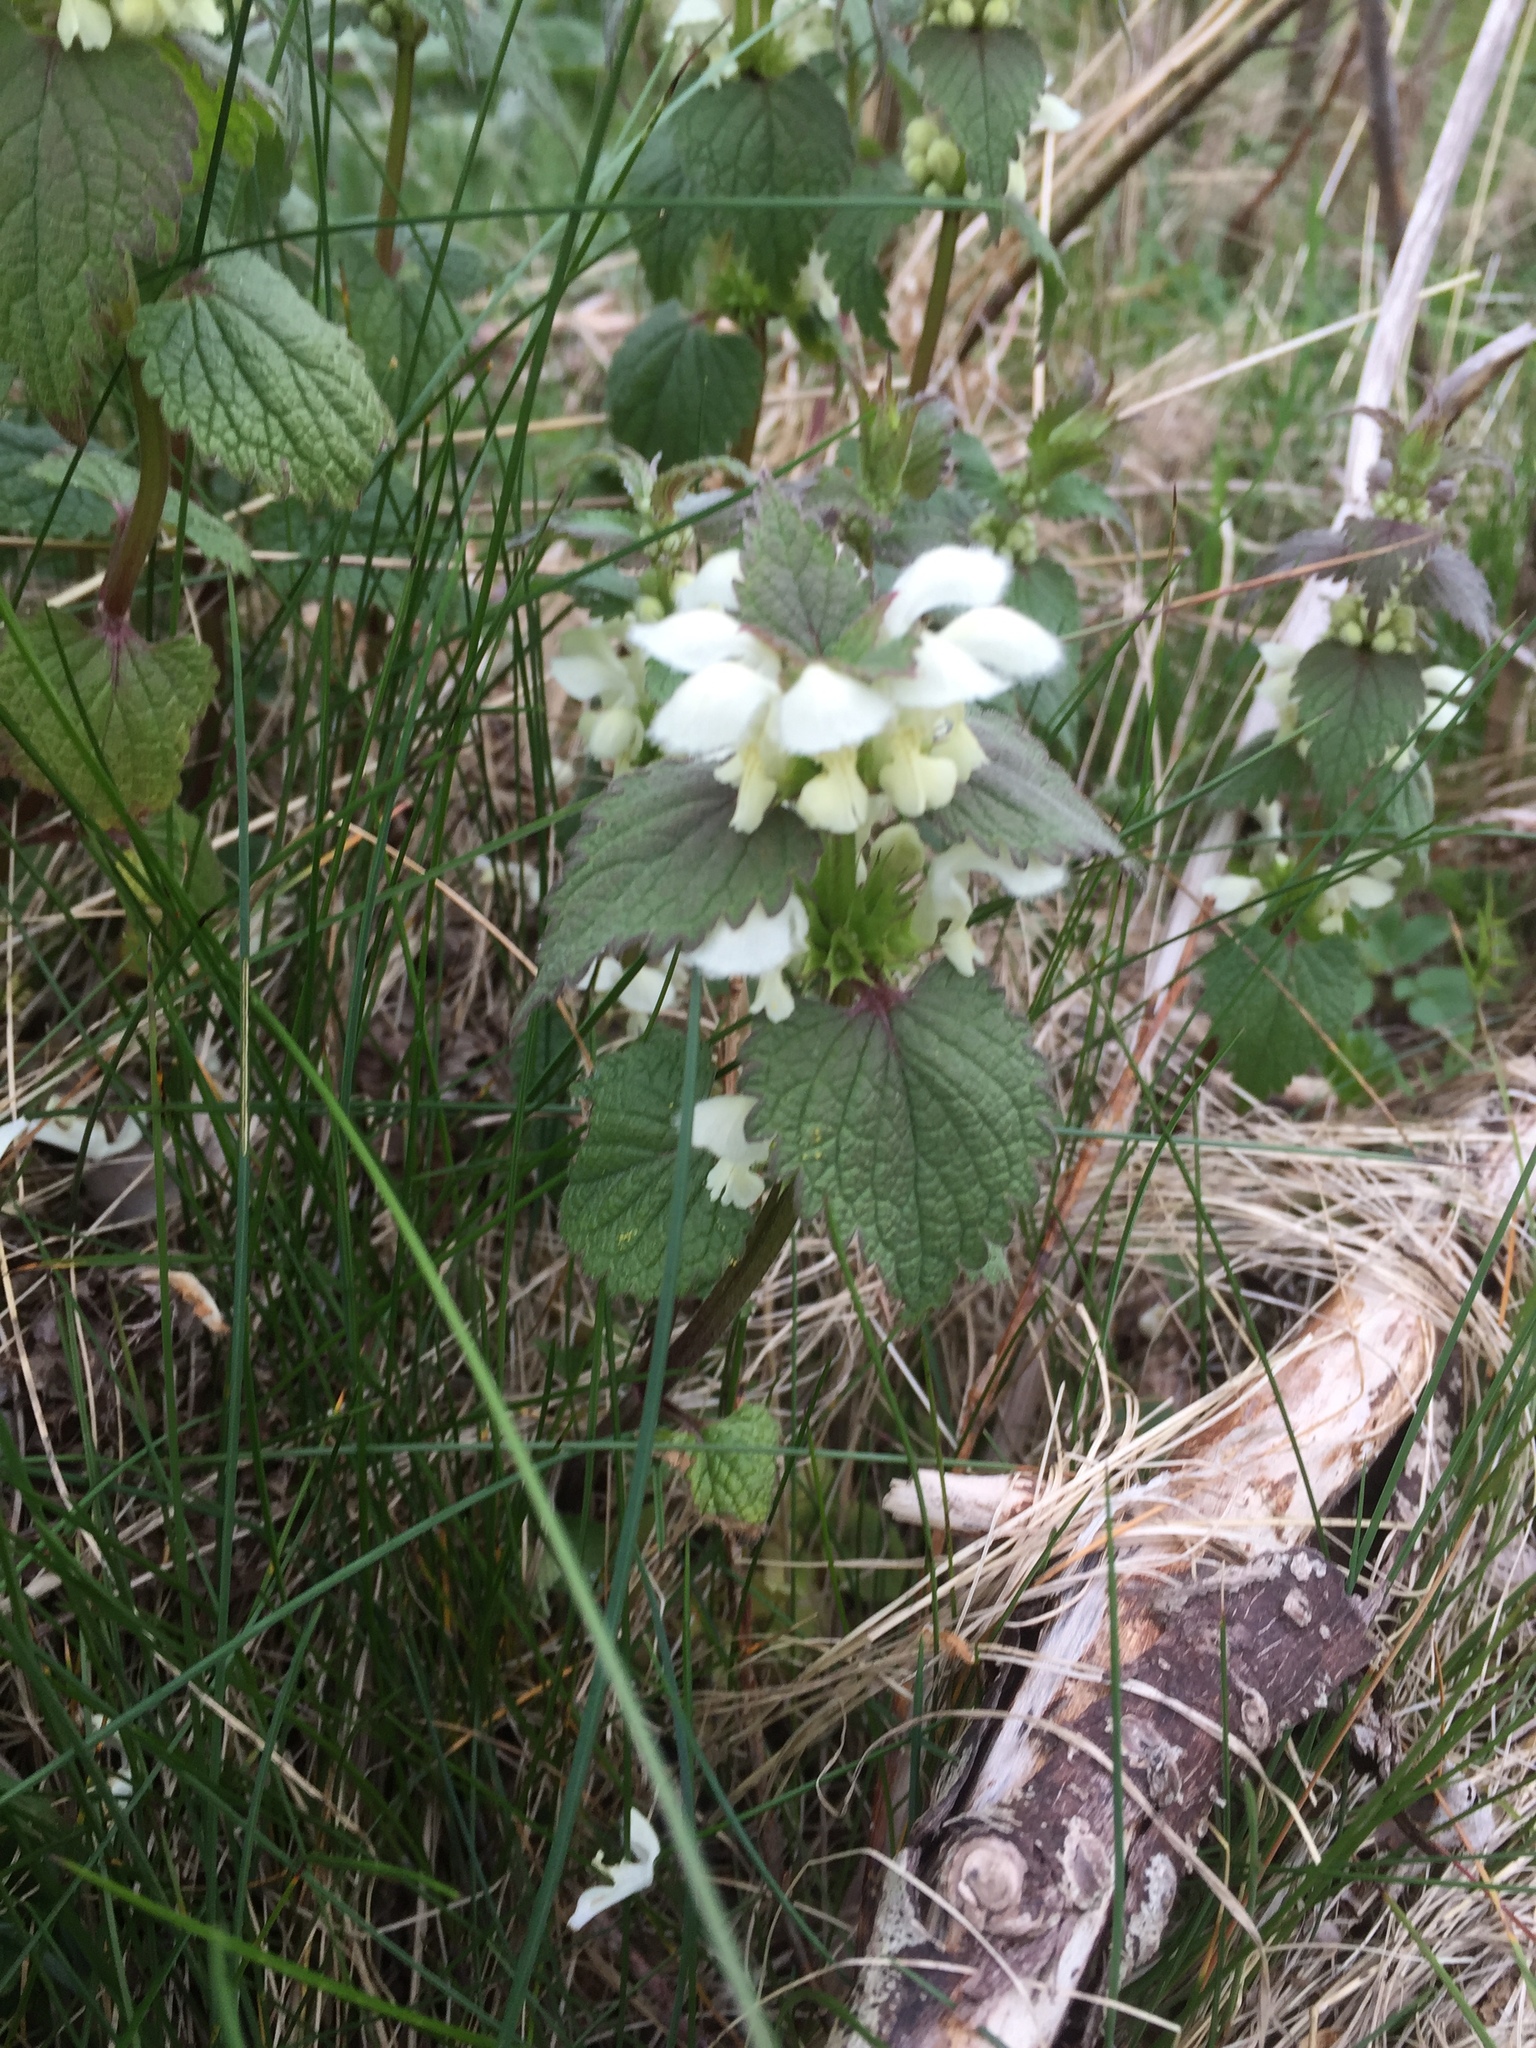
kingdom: Plantae
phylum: Tracheophyta
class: Magnoliopsida
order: Lamiales
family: Lamiaceae
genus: Lamium
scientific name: Lamium album
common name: White dead-nettle
